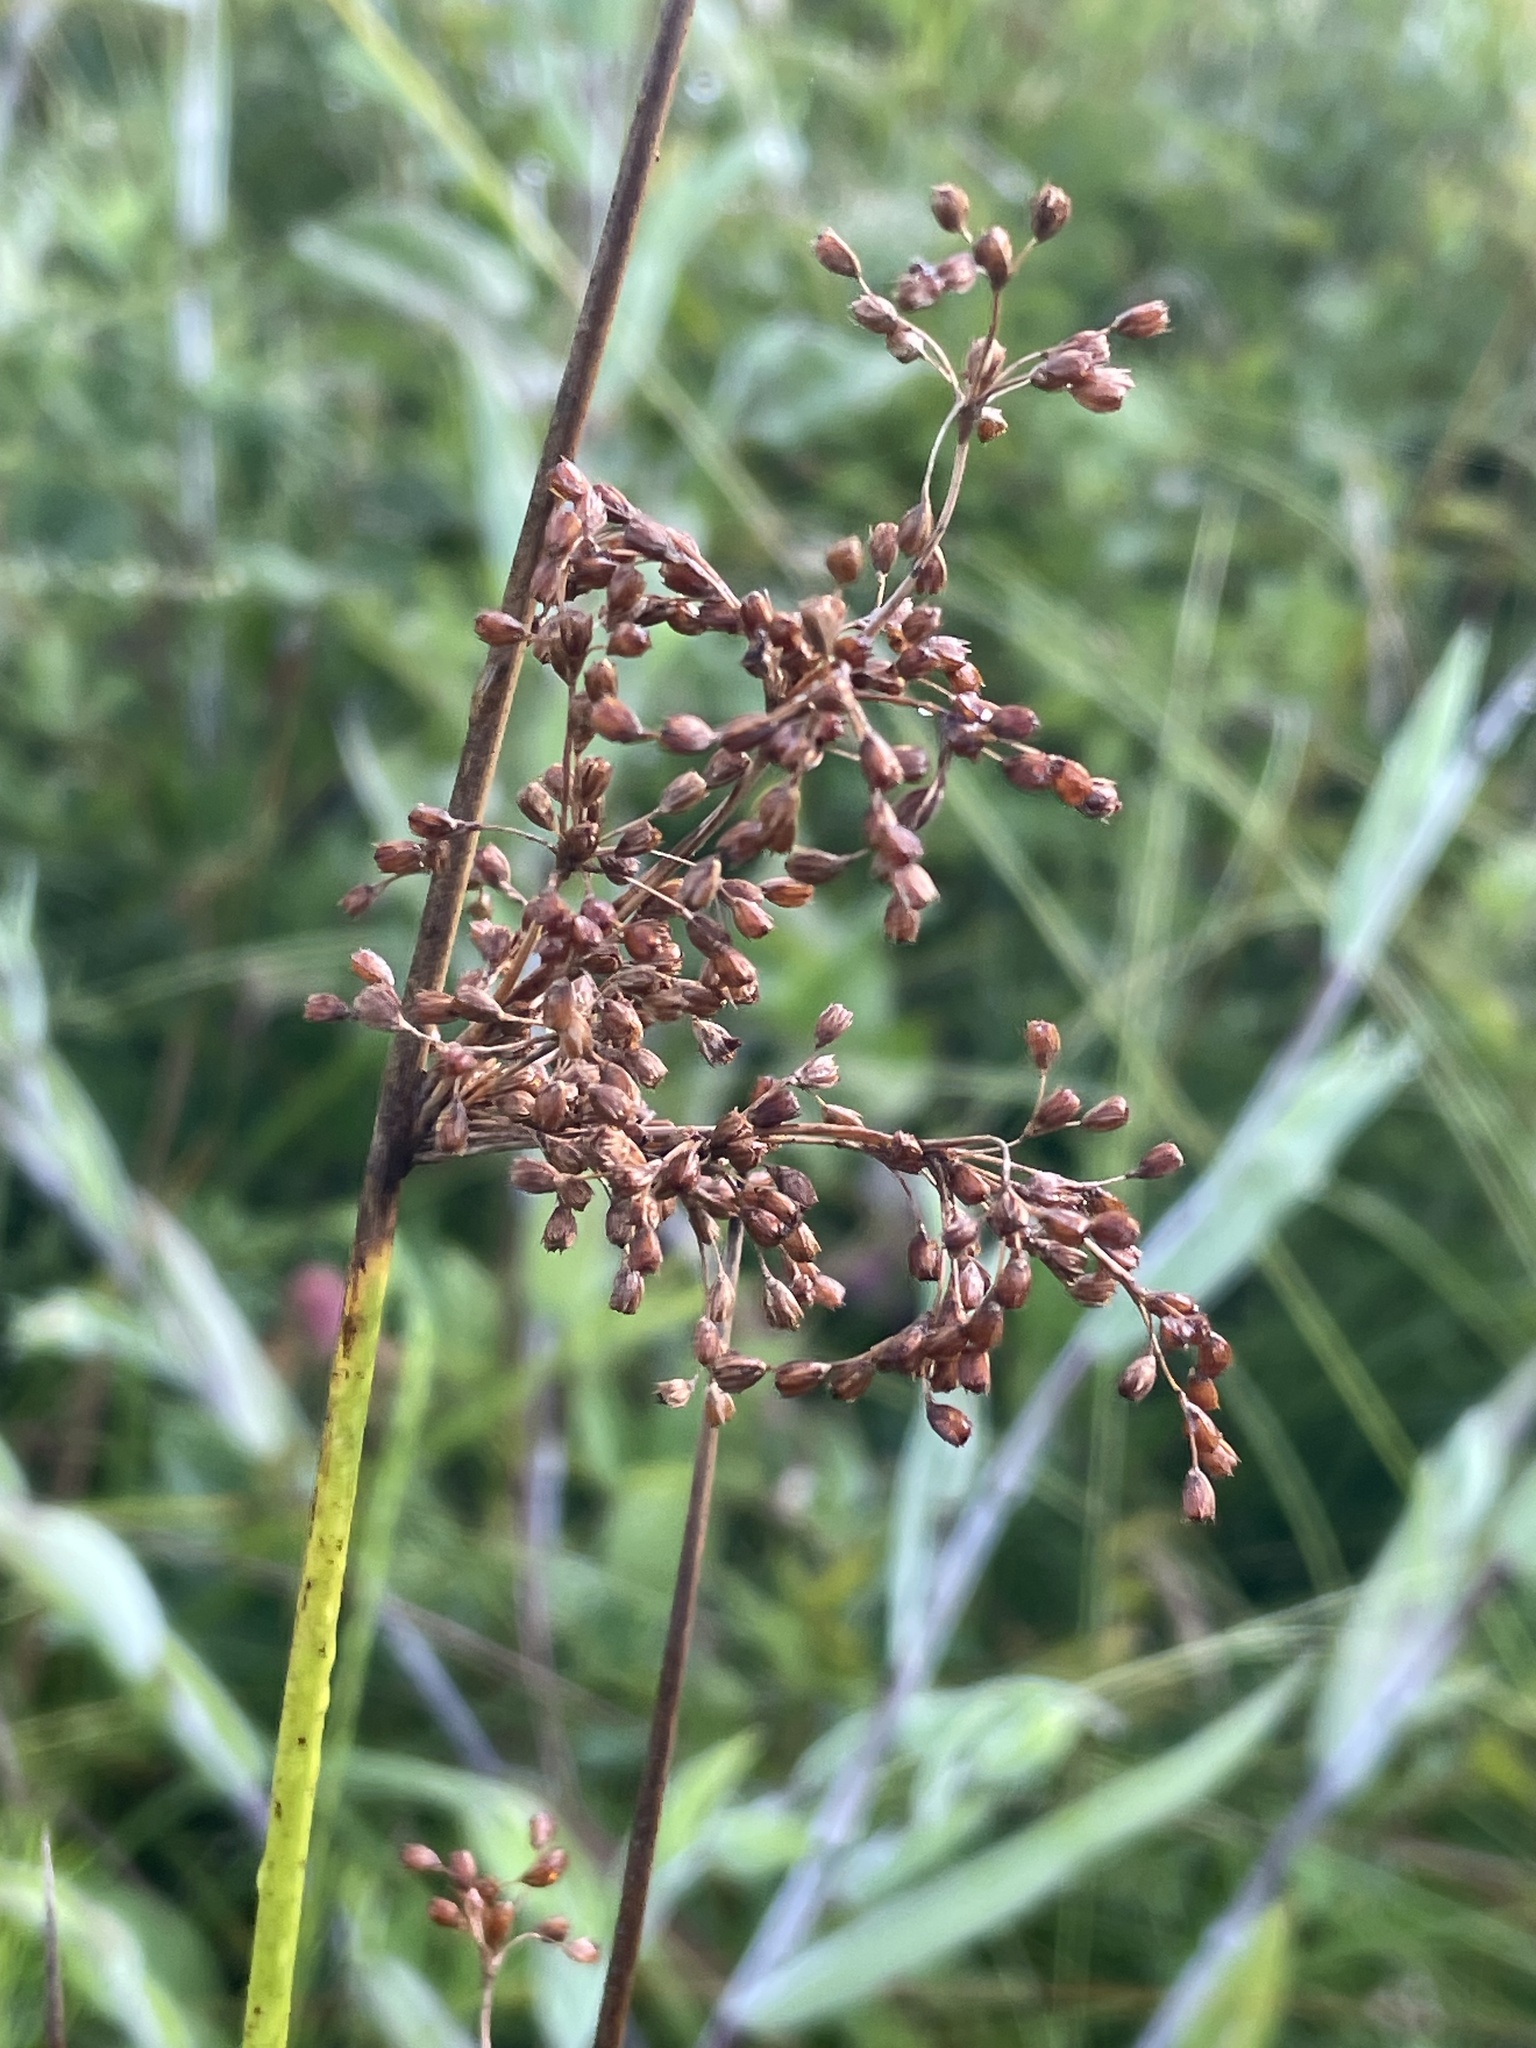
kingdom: Plantae
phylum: Tracheophyta
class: Liliopsida
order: Poales
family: Juncaceae
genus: Juncus
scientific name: Juncus effusus
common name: Soft rush
